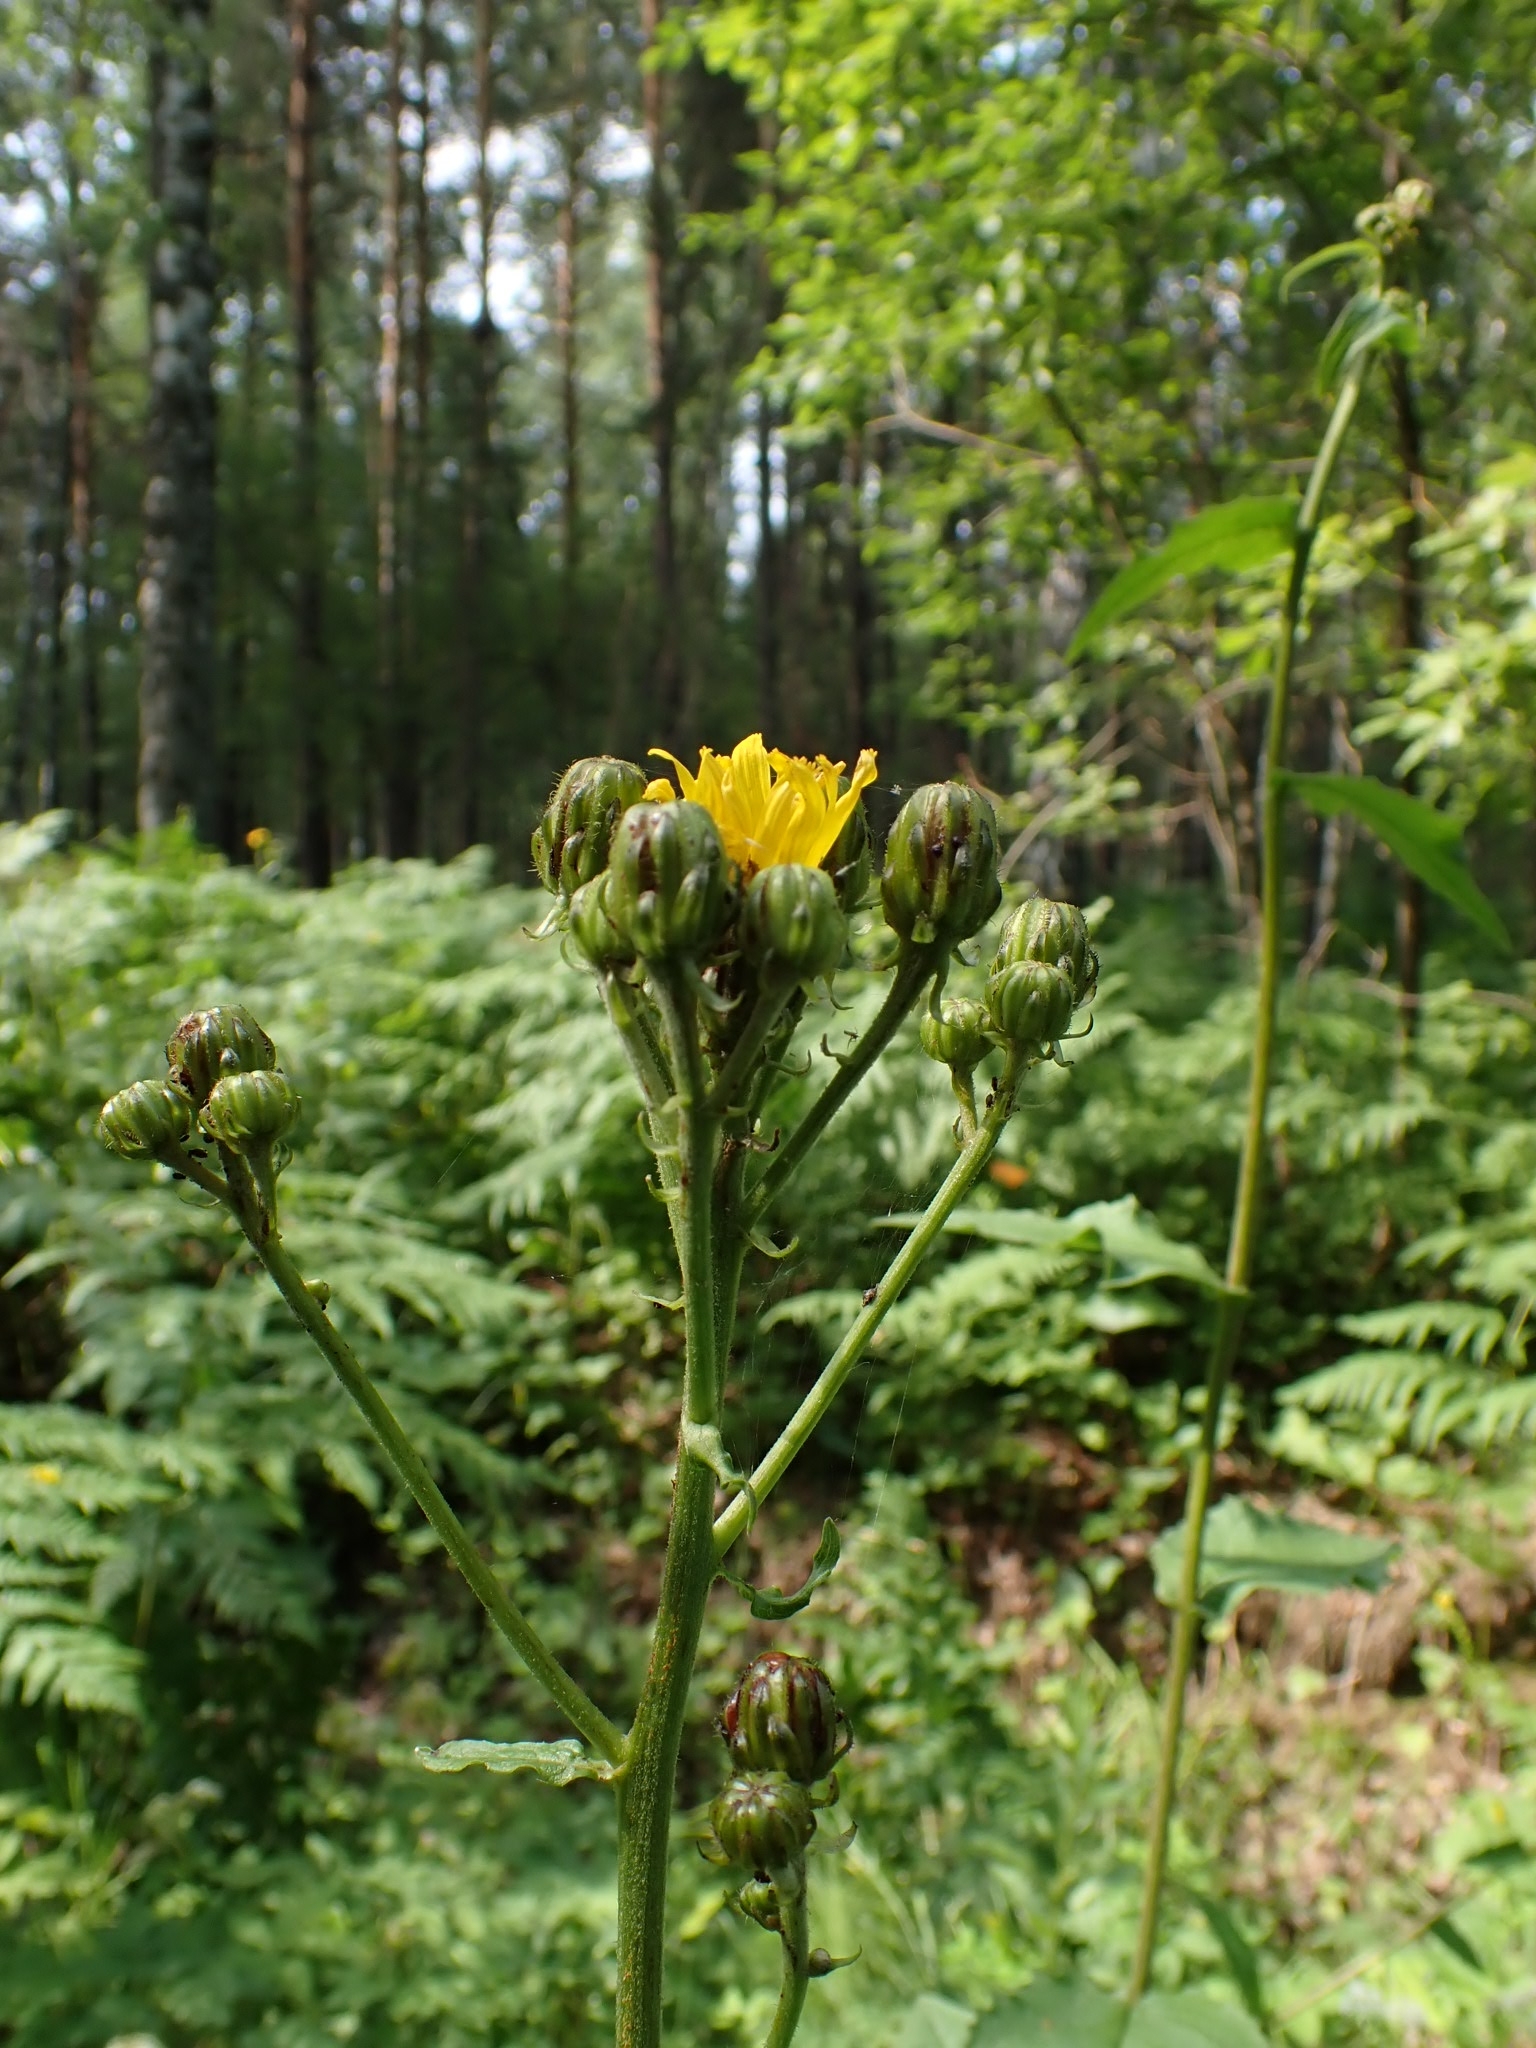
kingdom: Plantae
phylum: Tracheophyta
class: Magnoliopsida
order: Asterales
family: Asteraceae
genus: Crepis
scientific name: Crepis sibirica
